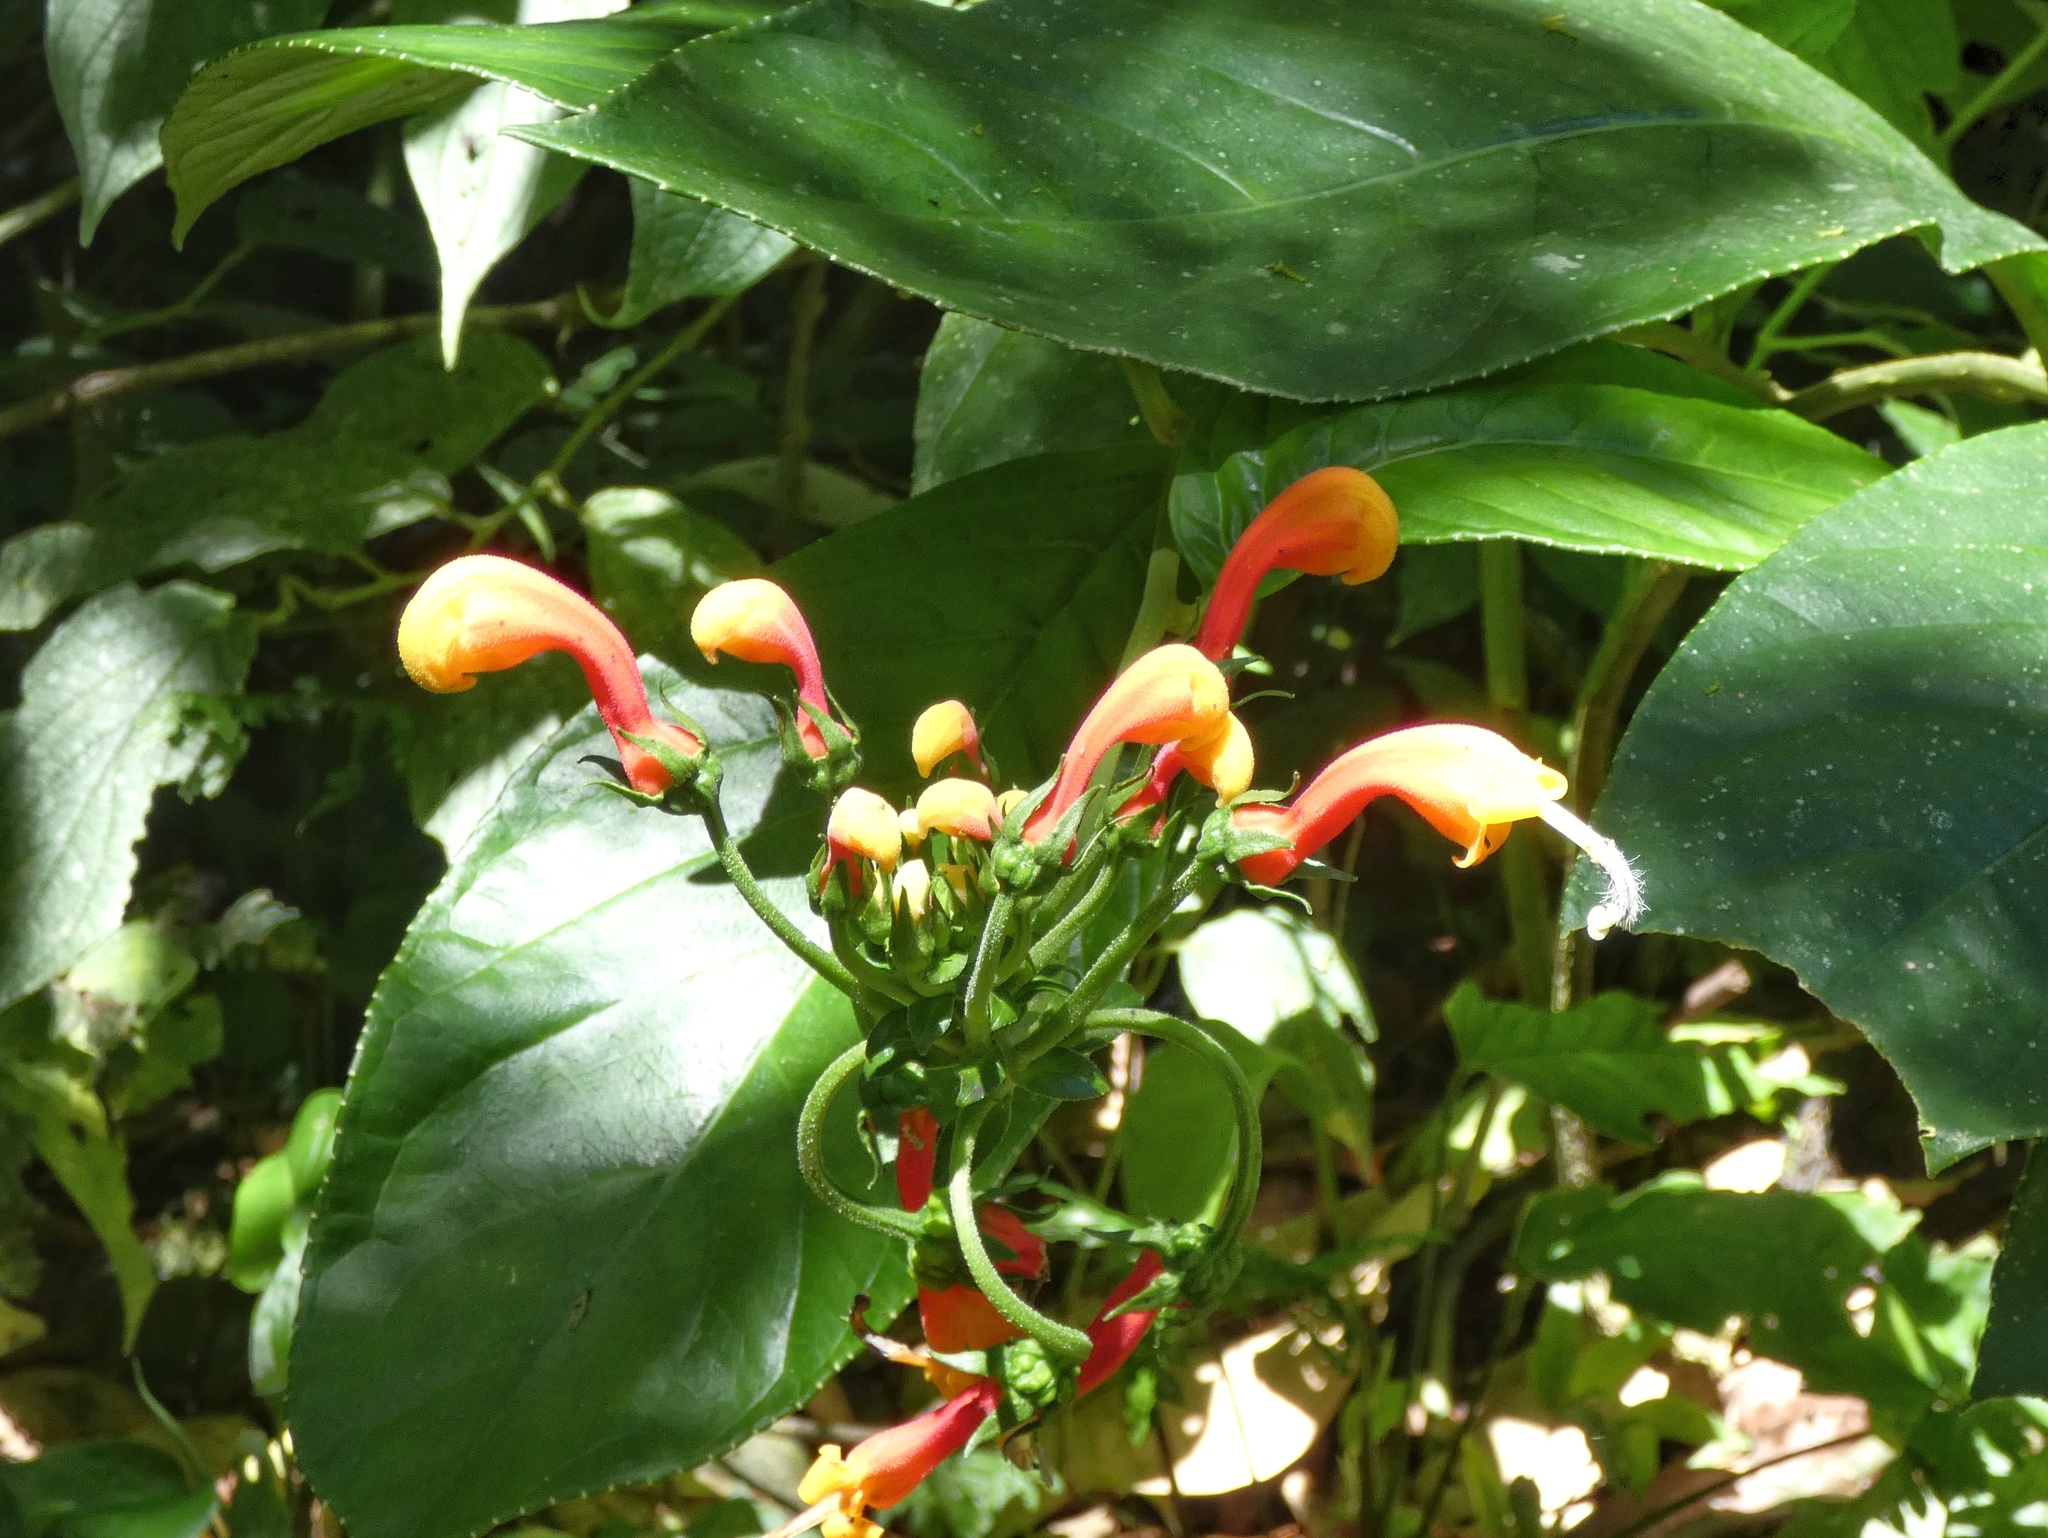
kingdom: Plantae
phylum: Tracheophyta
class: Magnoliopsida
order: Asterales
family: Campanulaceae
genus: Centropogon
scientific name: Centropogon granulosus
